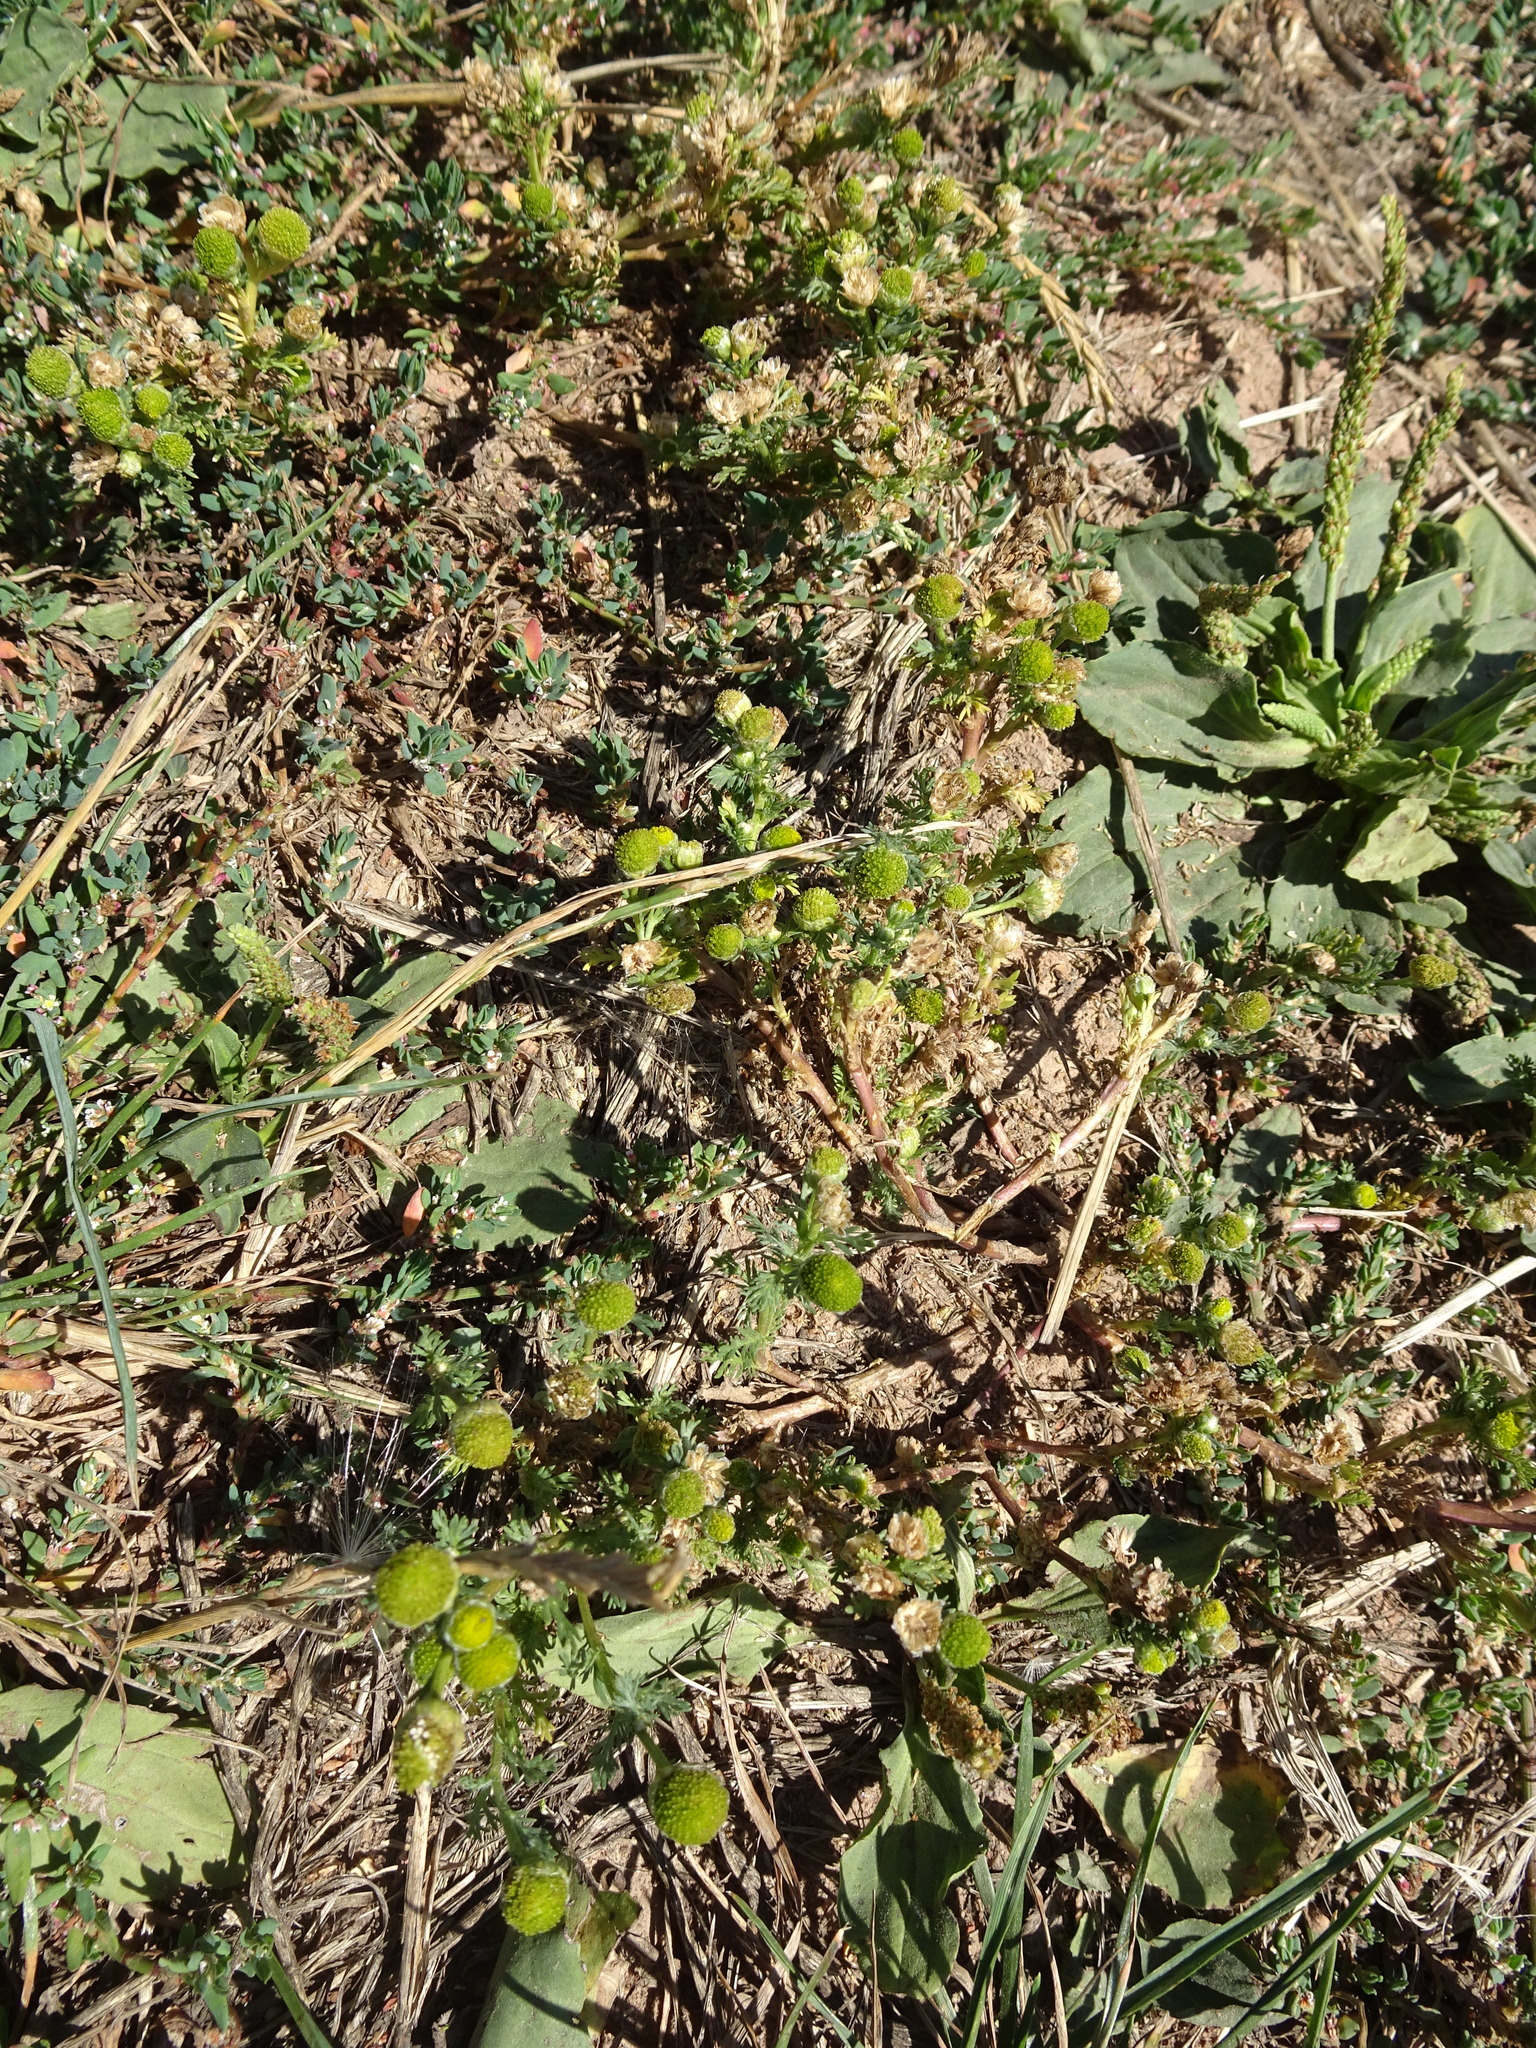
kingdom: Plantae
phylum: Tracheophyta
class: Magnoliopsida
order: Asterales
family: Asteraceae
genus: Matricaria
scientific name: Matricaria discoidea
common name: Disc mayweed
